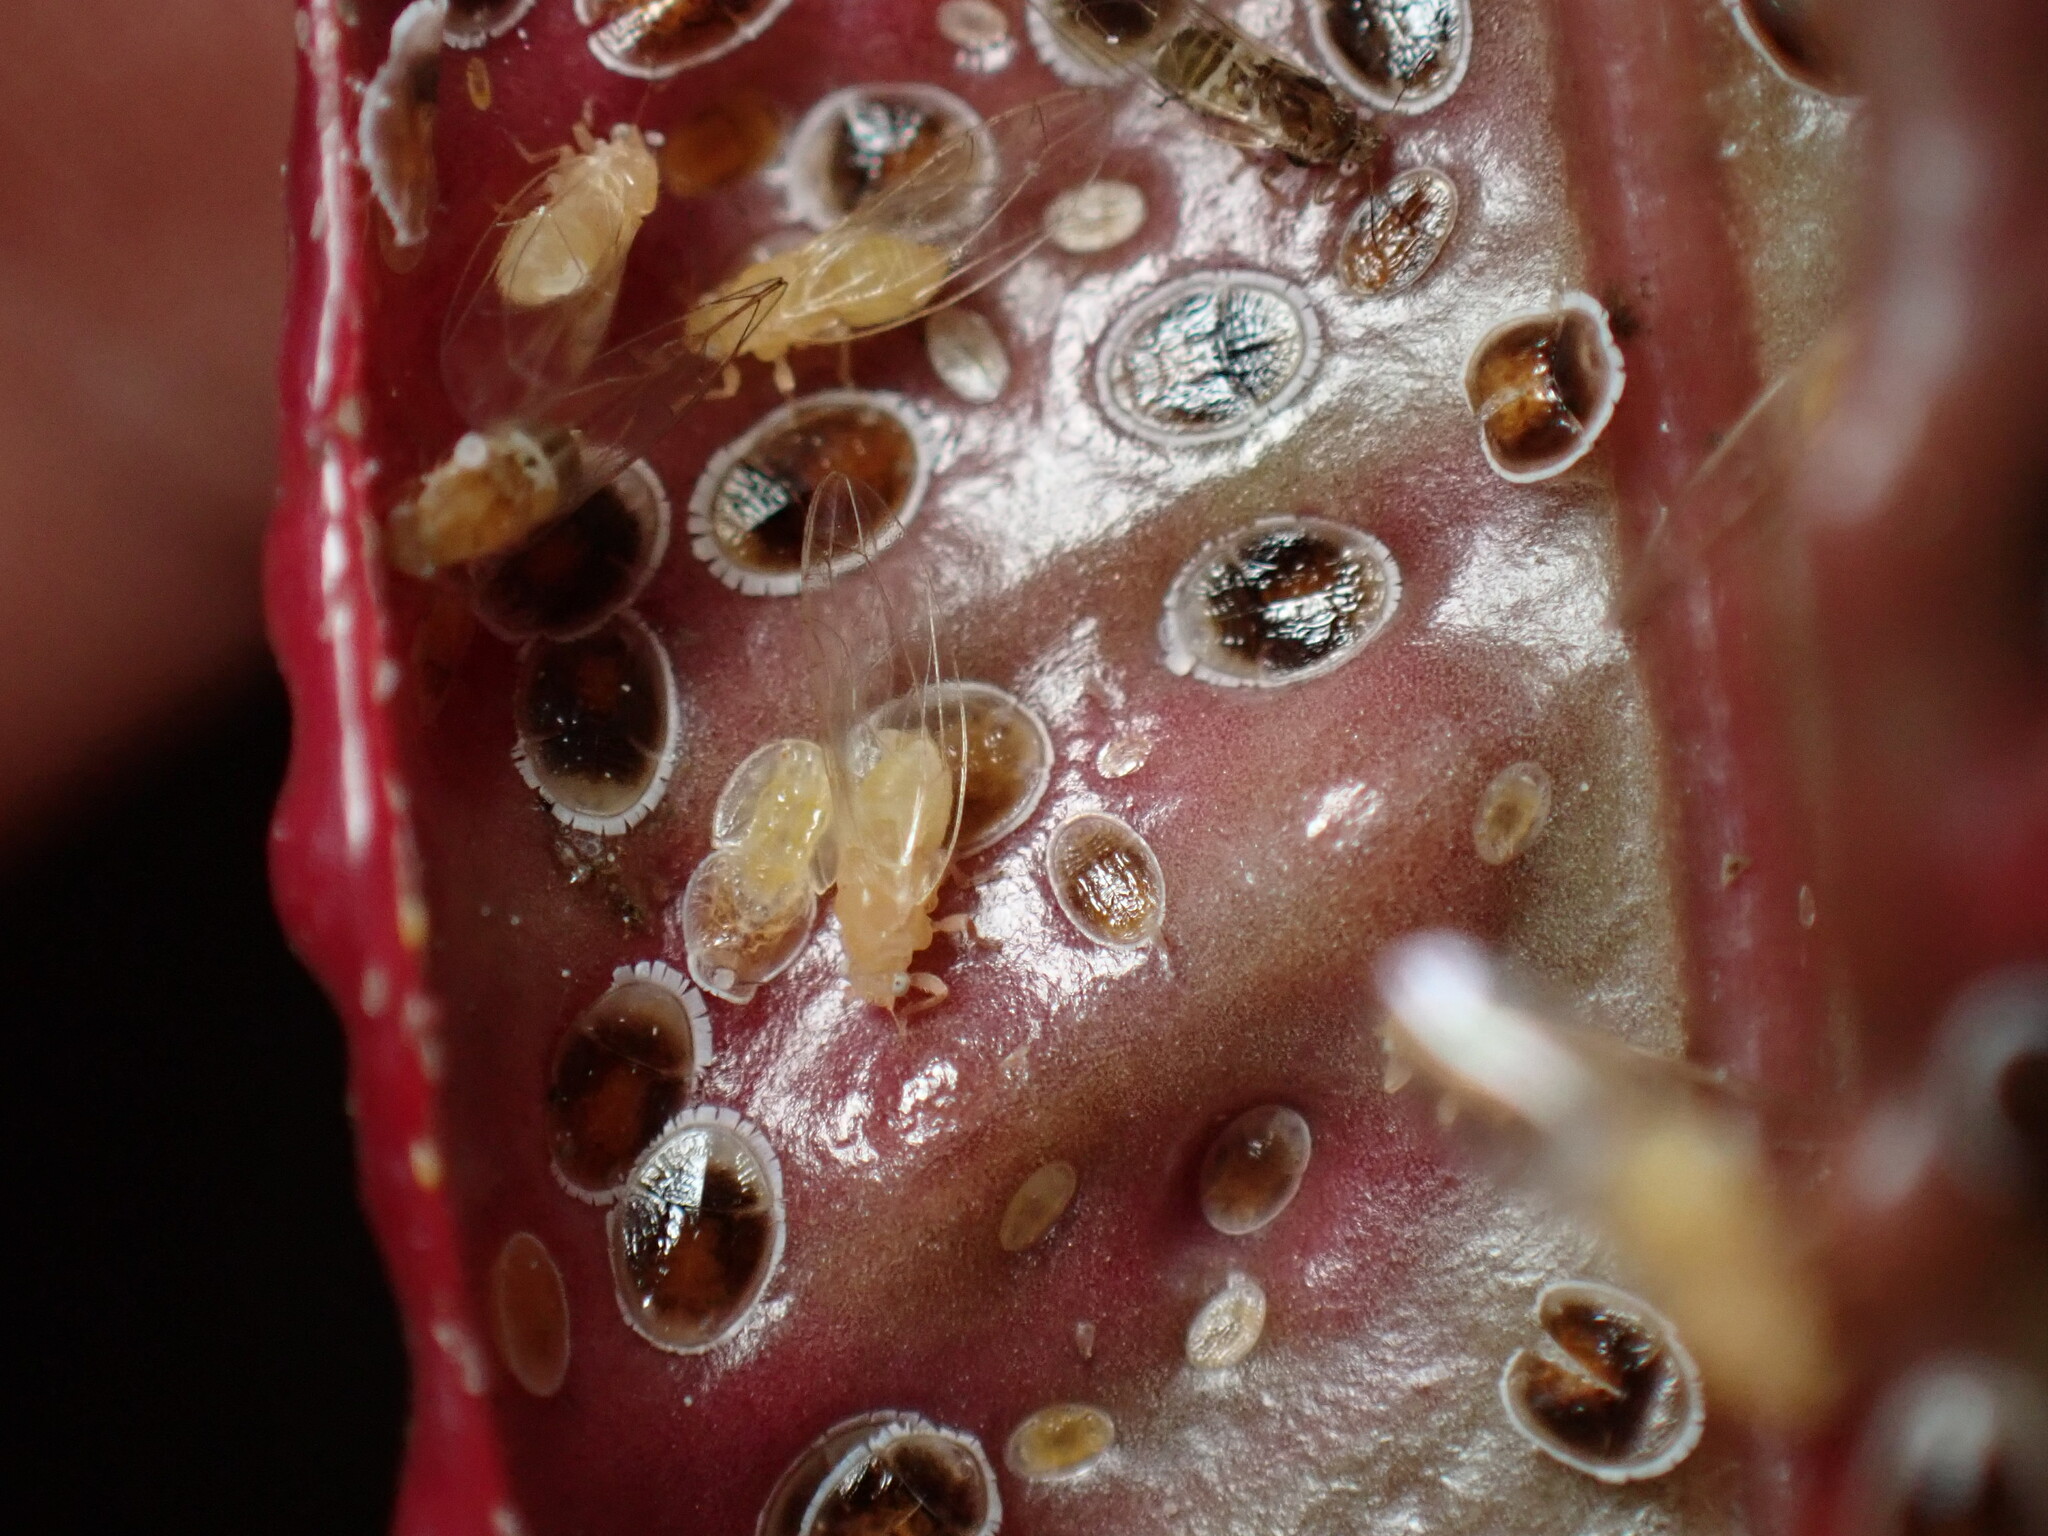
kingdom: Animalia
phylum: Arthropoda
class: Insecta
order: Hemiptera
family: Triozidae
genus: Trioza
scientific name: Trioza adventicia
